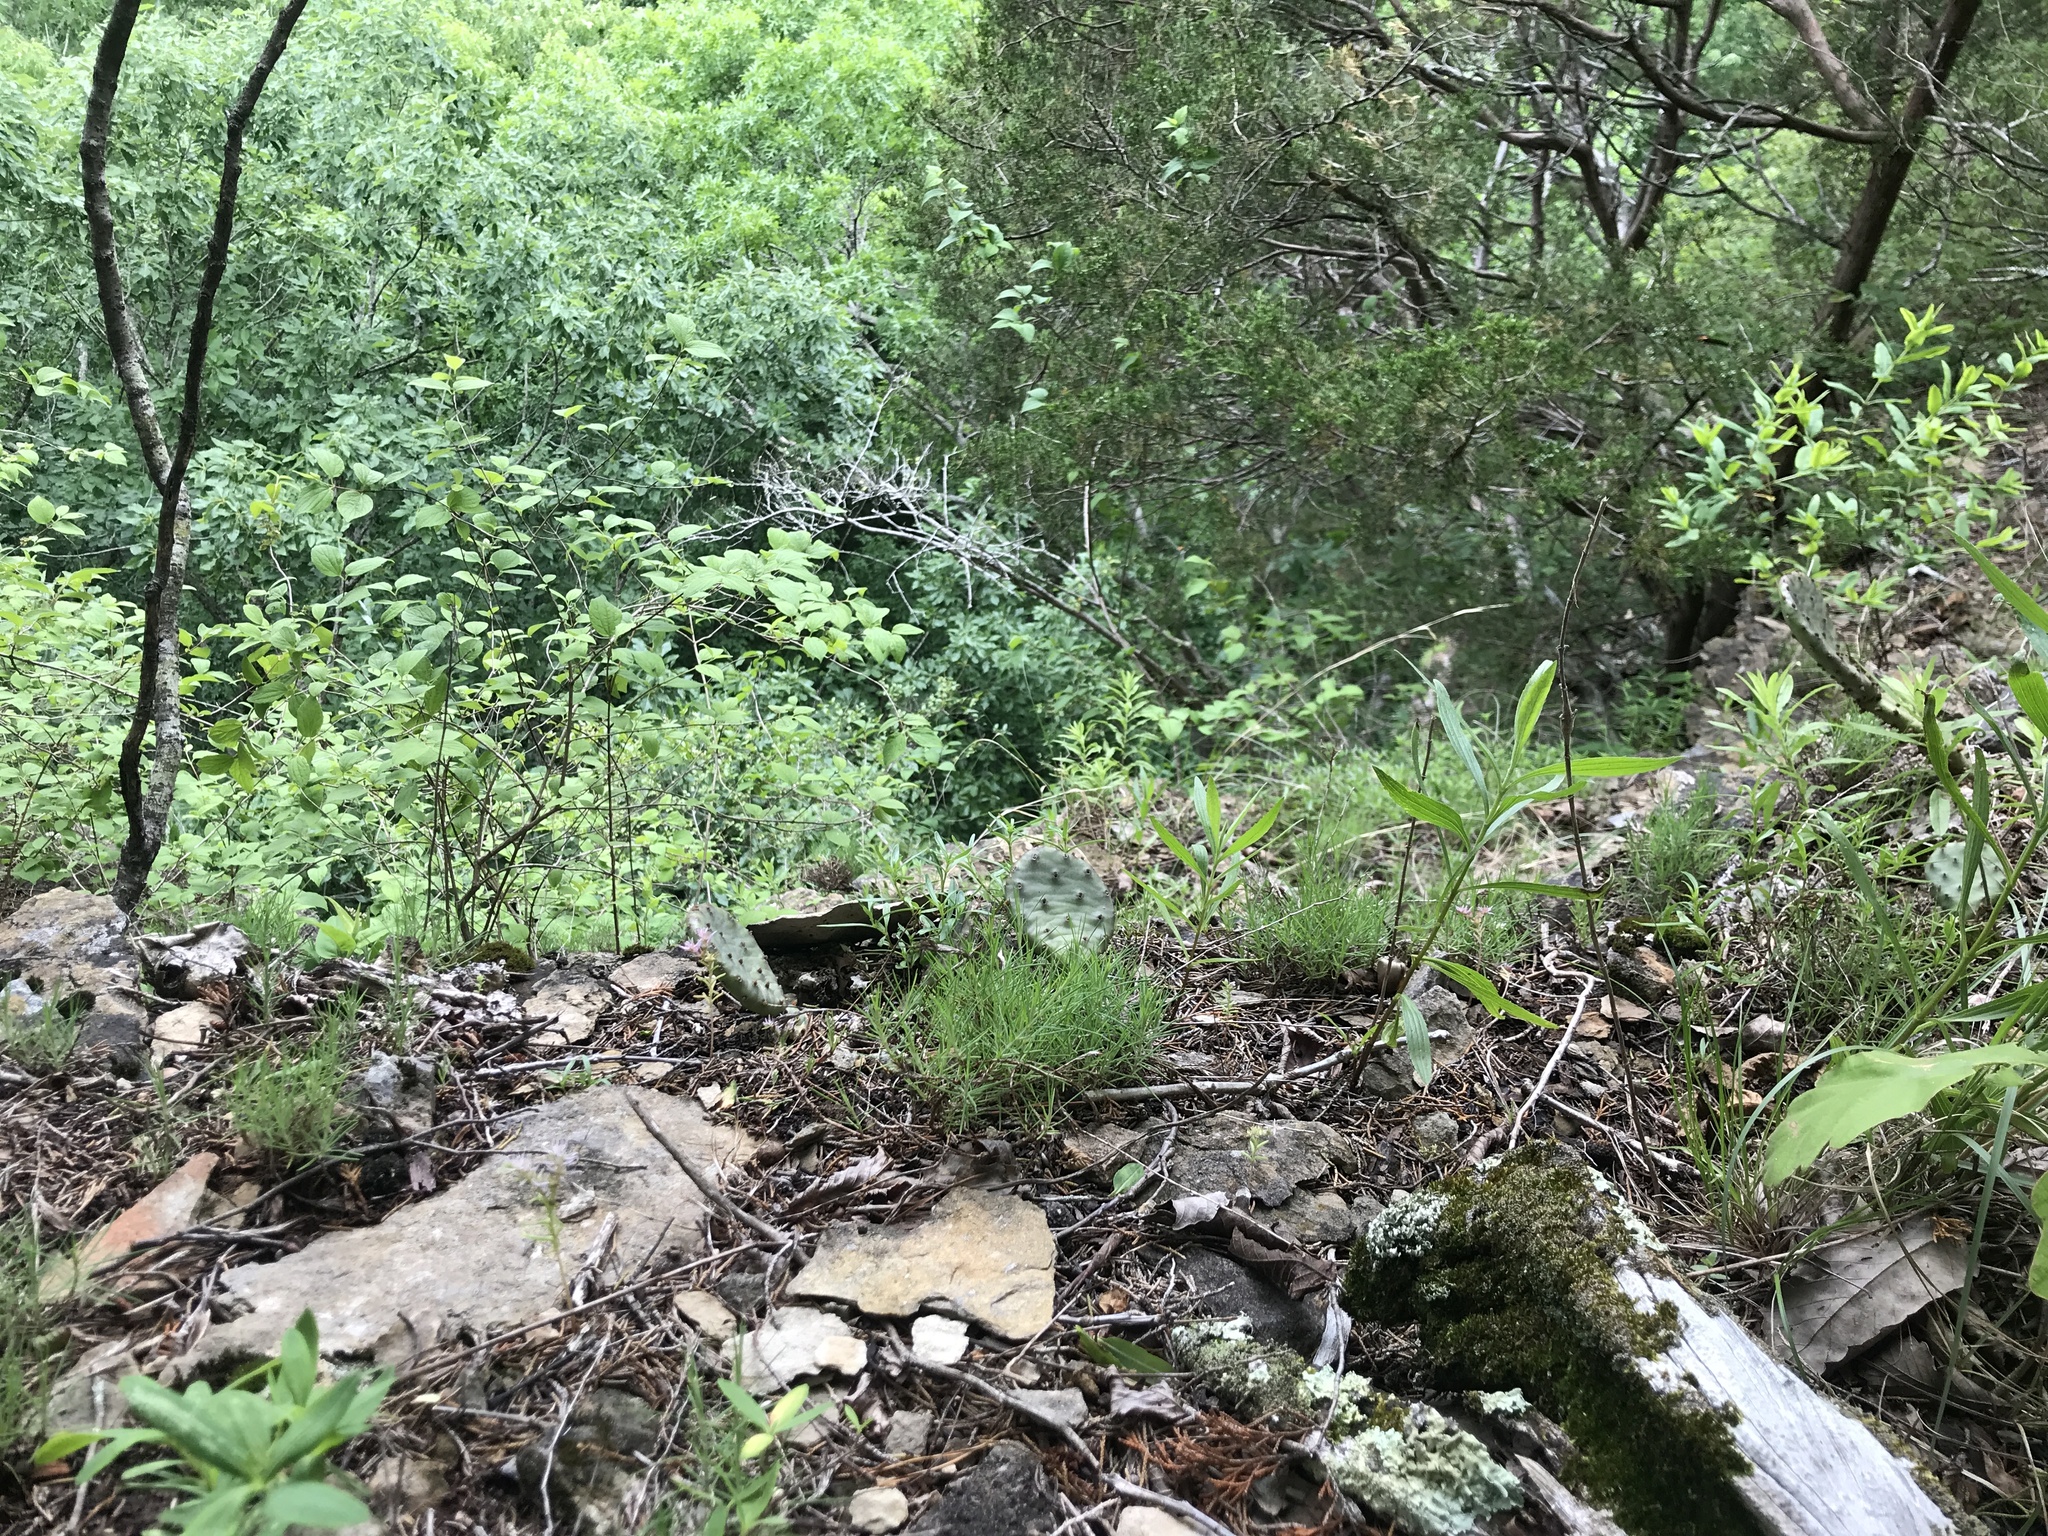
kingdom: Plantae
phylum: Tracheophyta
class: Magnoliopsida
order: Caryophyllales
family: Caryophyllaceae
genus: Paronychia
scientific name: Paronychia virginica
